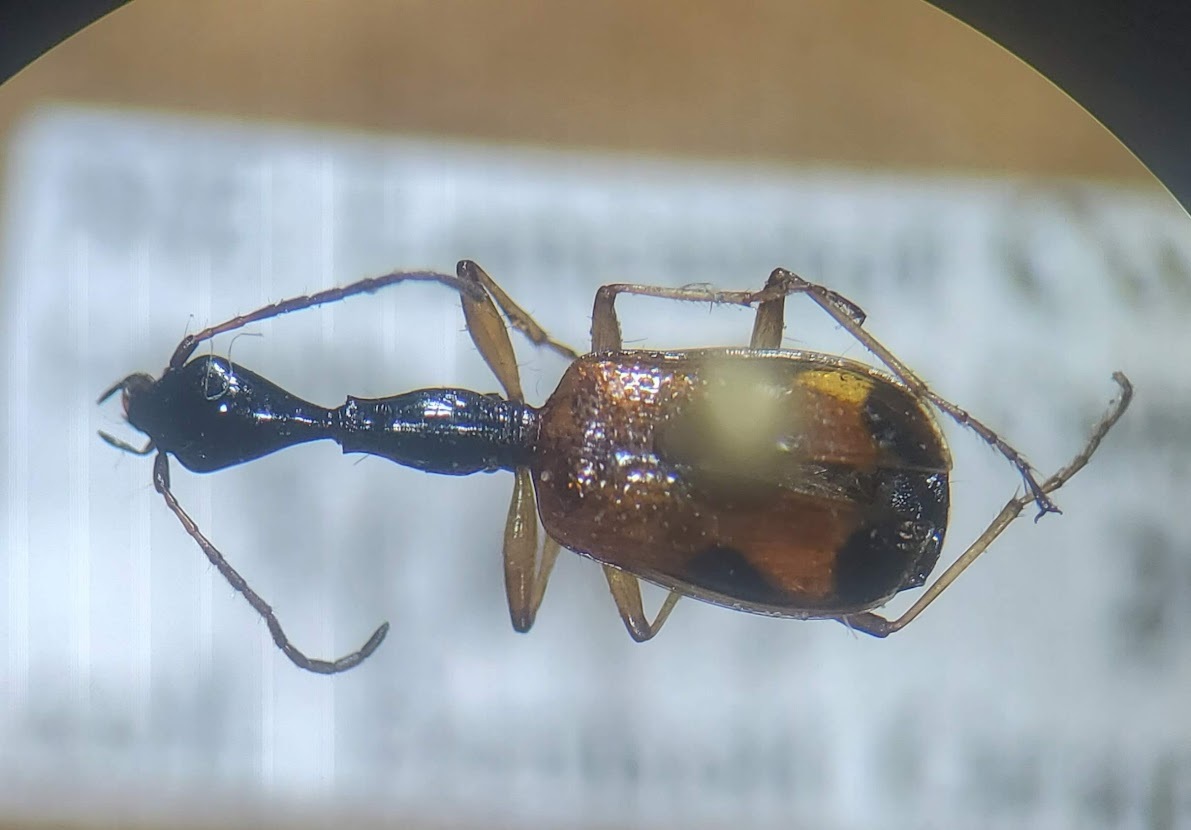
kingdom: Animalia
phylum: Arthropoda
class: Insecta
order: Coleoptera
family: Carabidae
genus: Colliuris
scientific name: Colliuris pensylvanica
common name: Long-necked ground beetle
